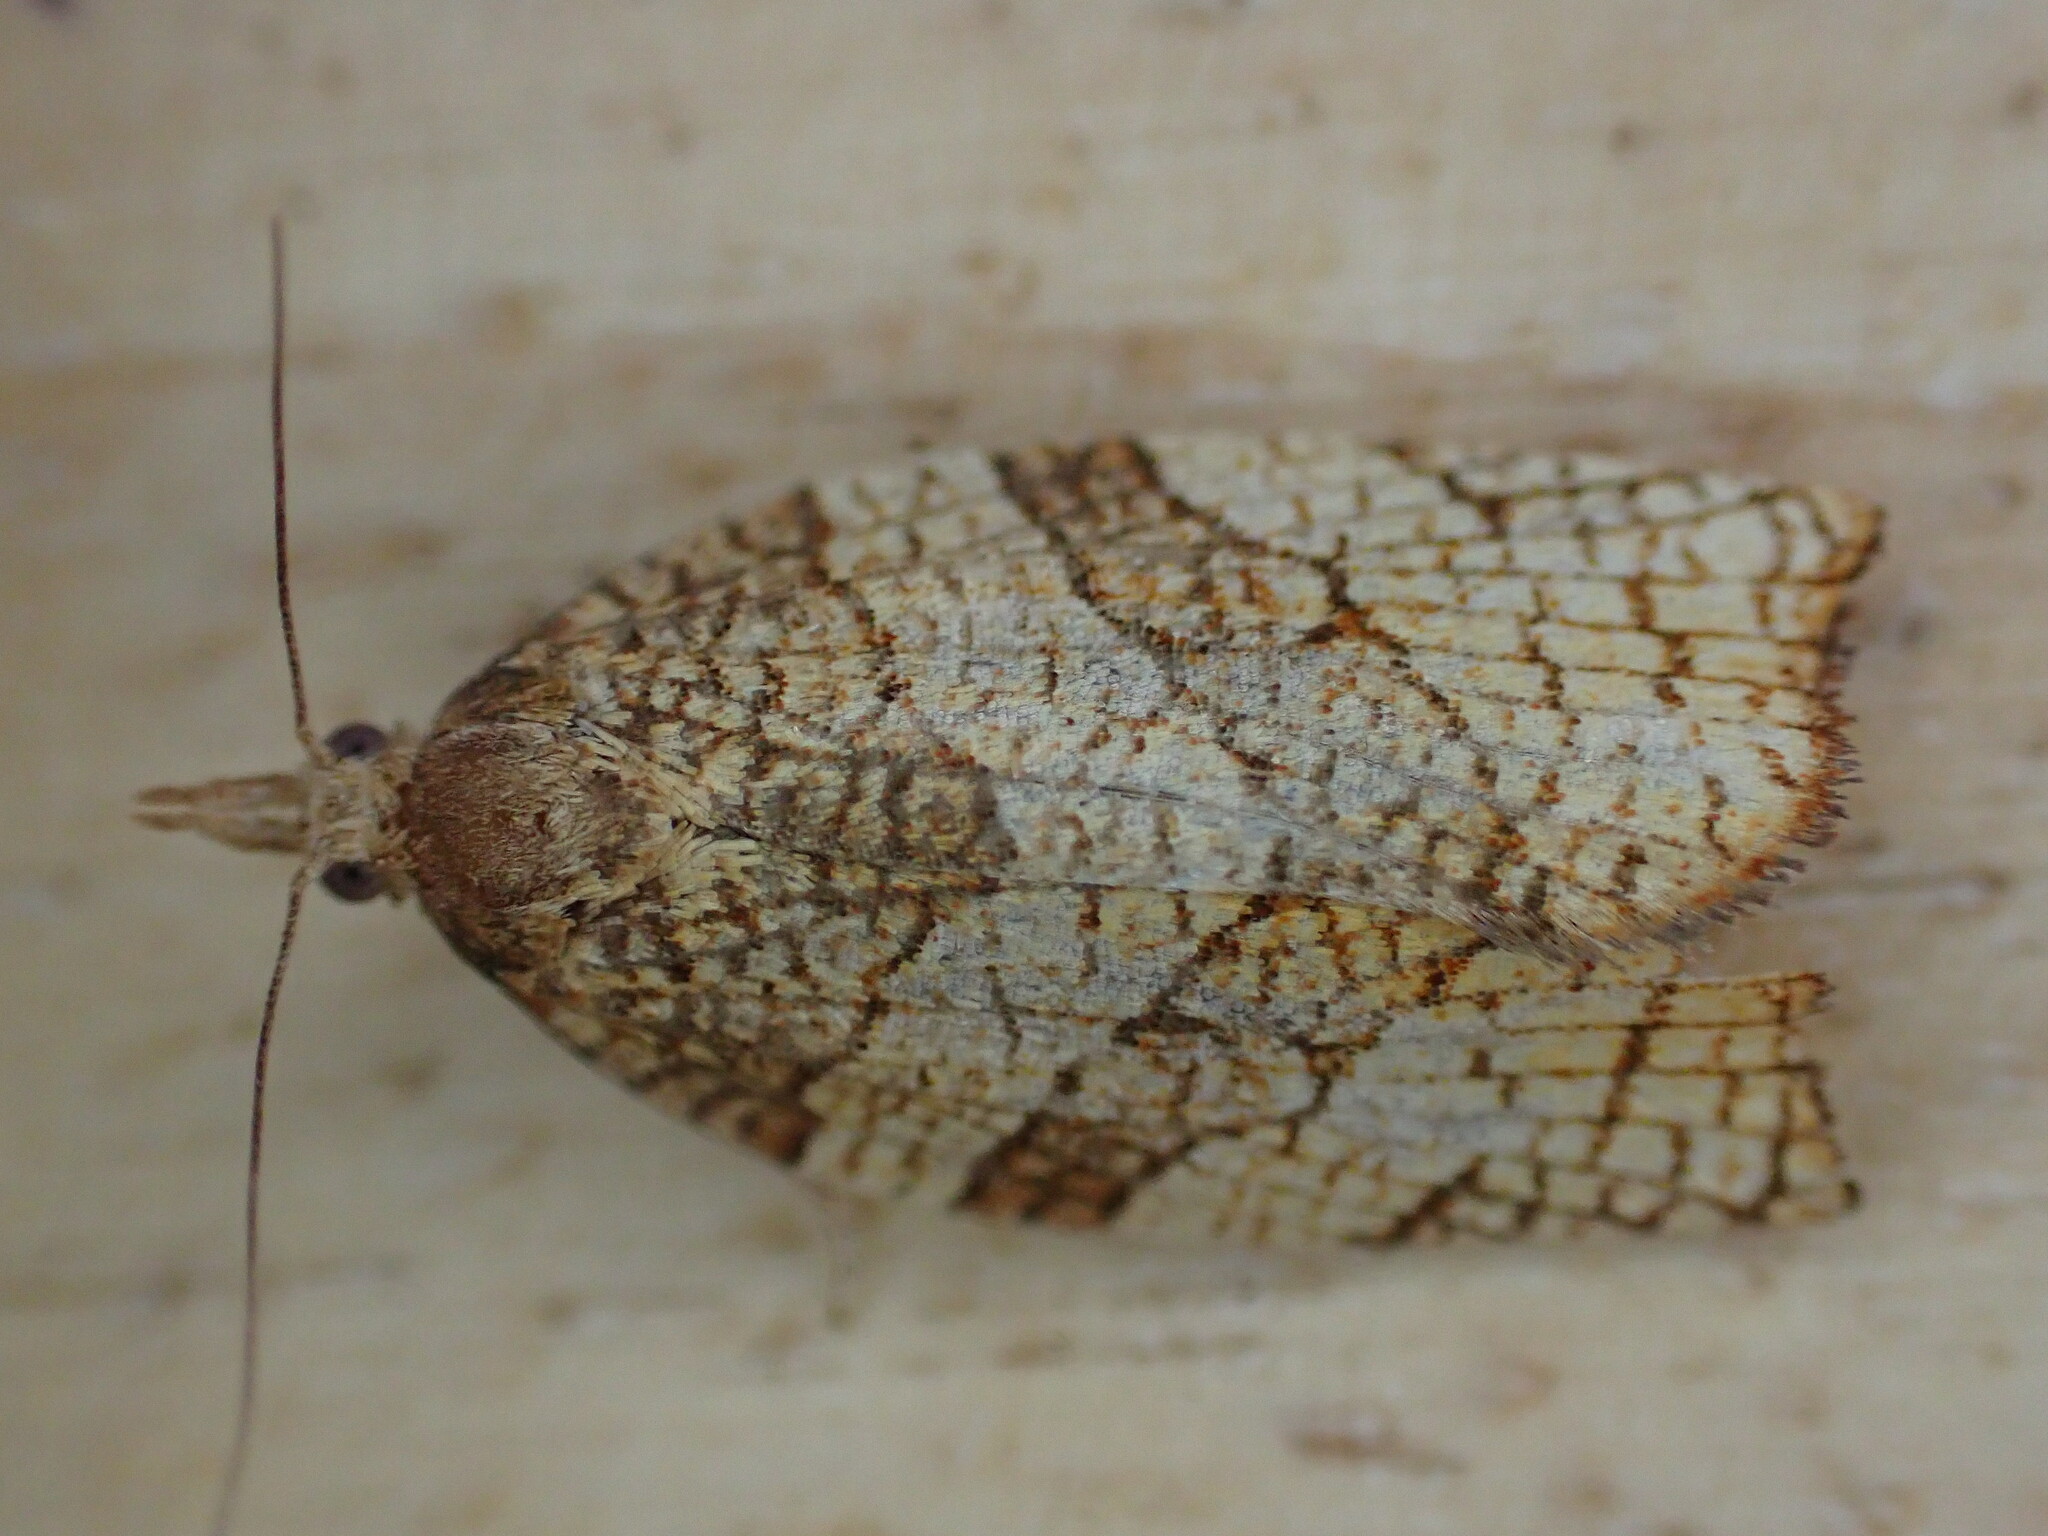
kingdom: Animalia
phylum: Arthropoda
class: Insecta
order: Lepidoptera
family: Tortricidae
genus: Pandemis
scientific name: Pandemis corylana
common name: Chequered fruit-tree tortrix
